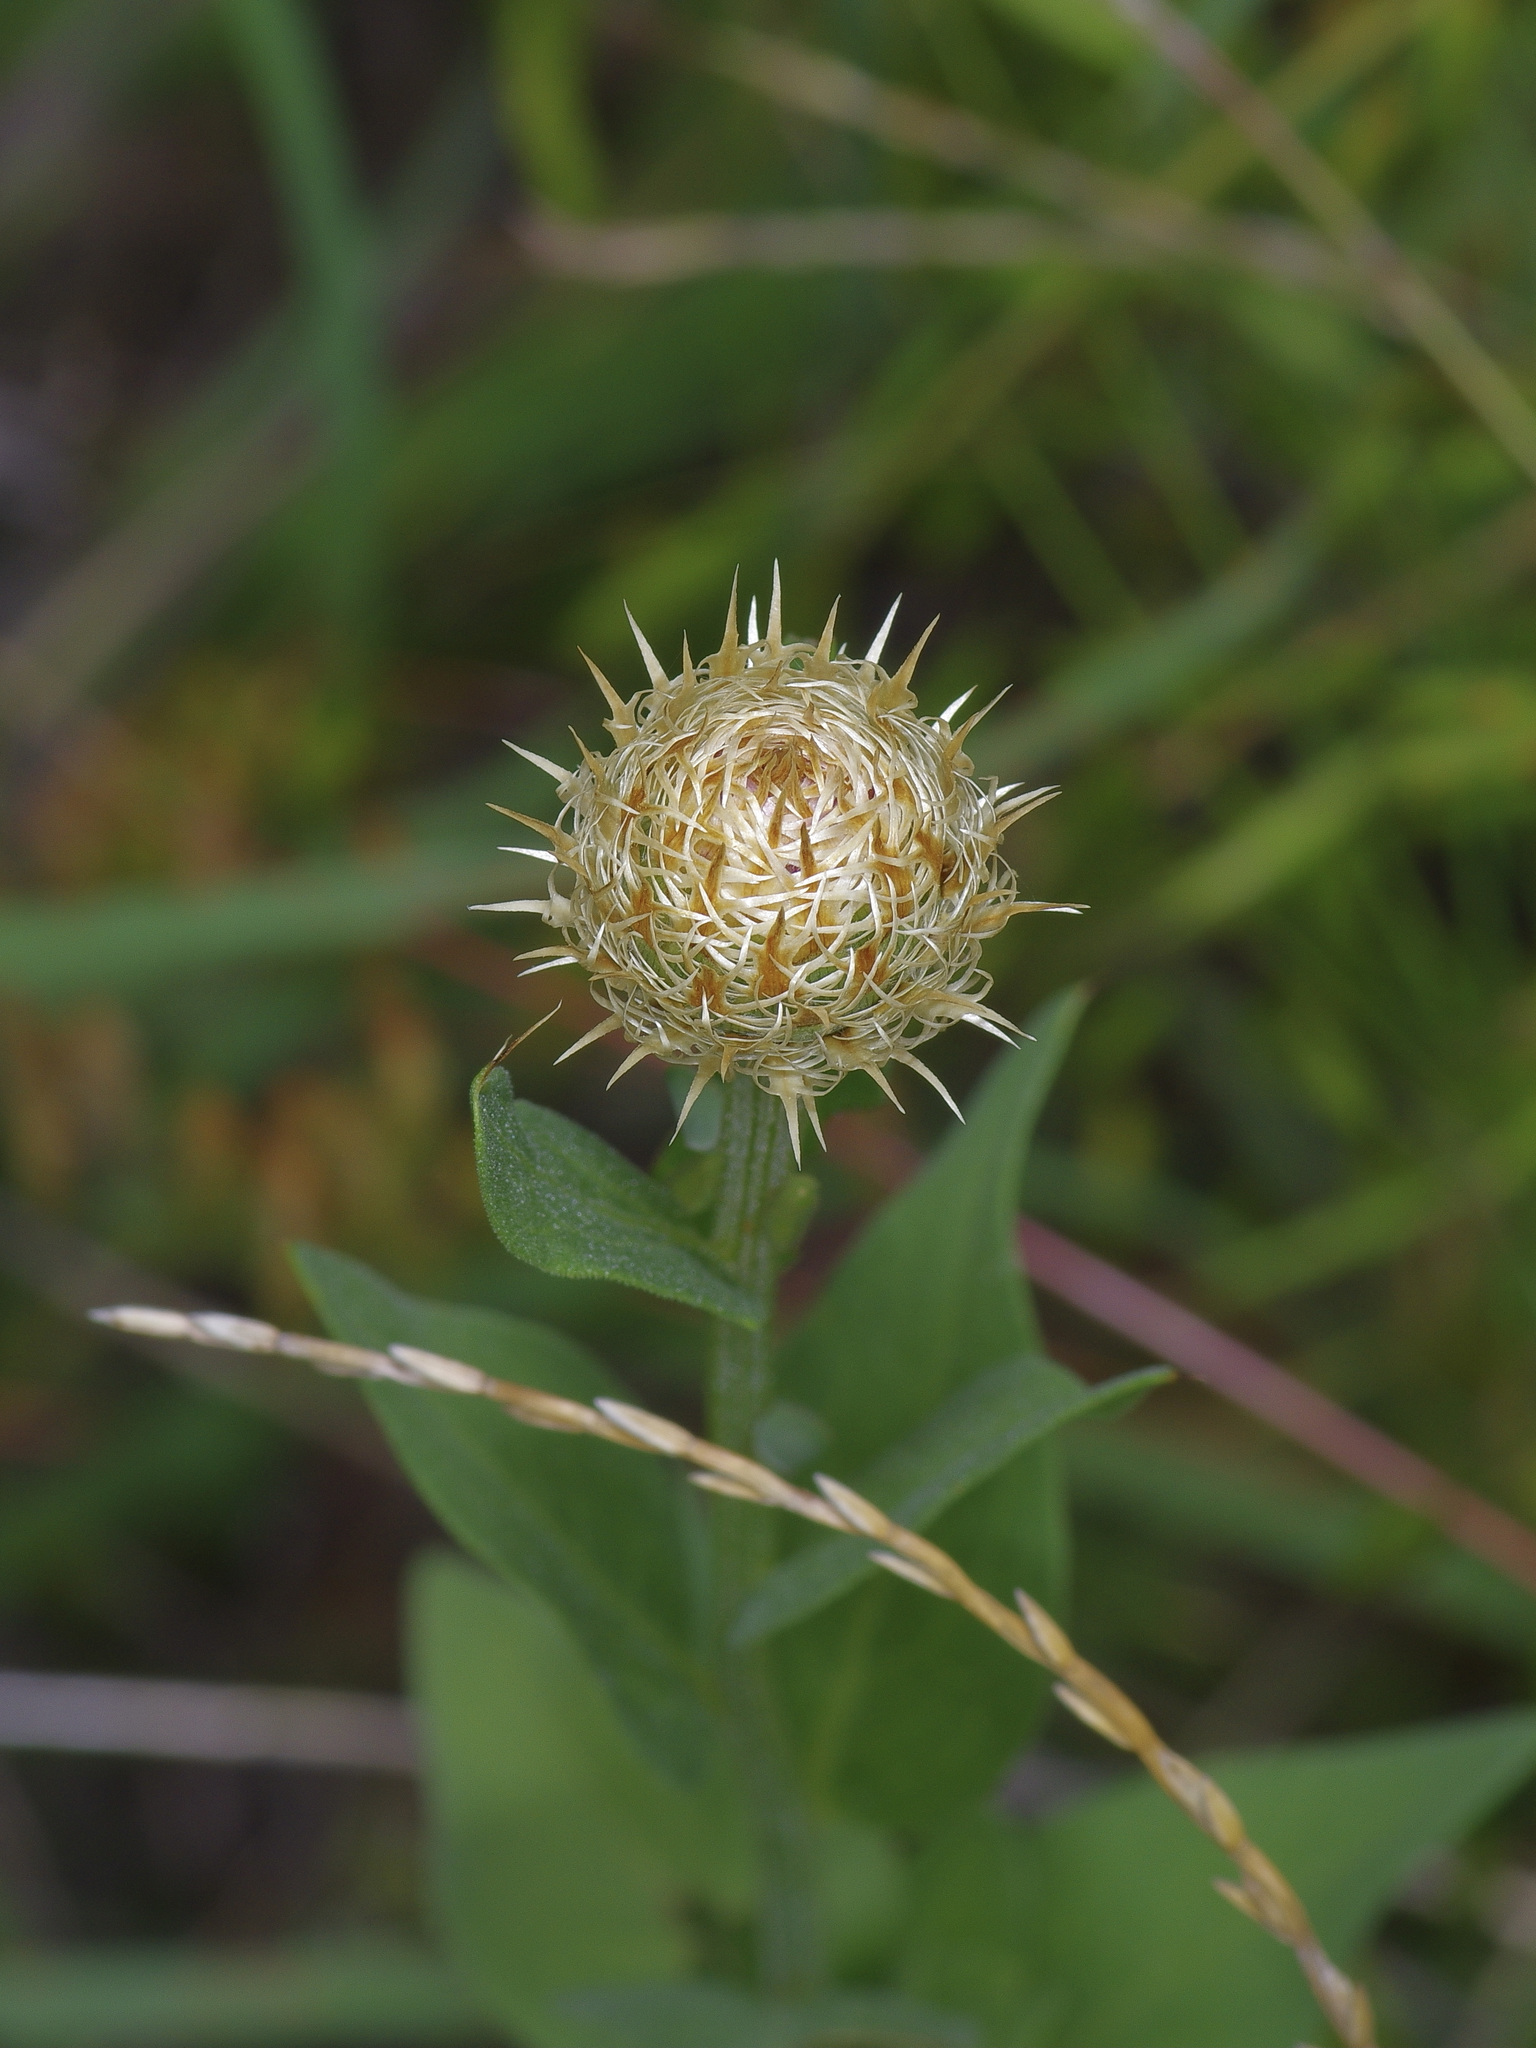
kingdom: Plantae
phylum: Tracheophyta
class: Magnoliopsida
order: Asterales
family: Asteraceae
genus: Plectocephalus
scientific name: Plectocephalus americanus
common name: American basket-flower
